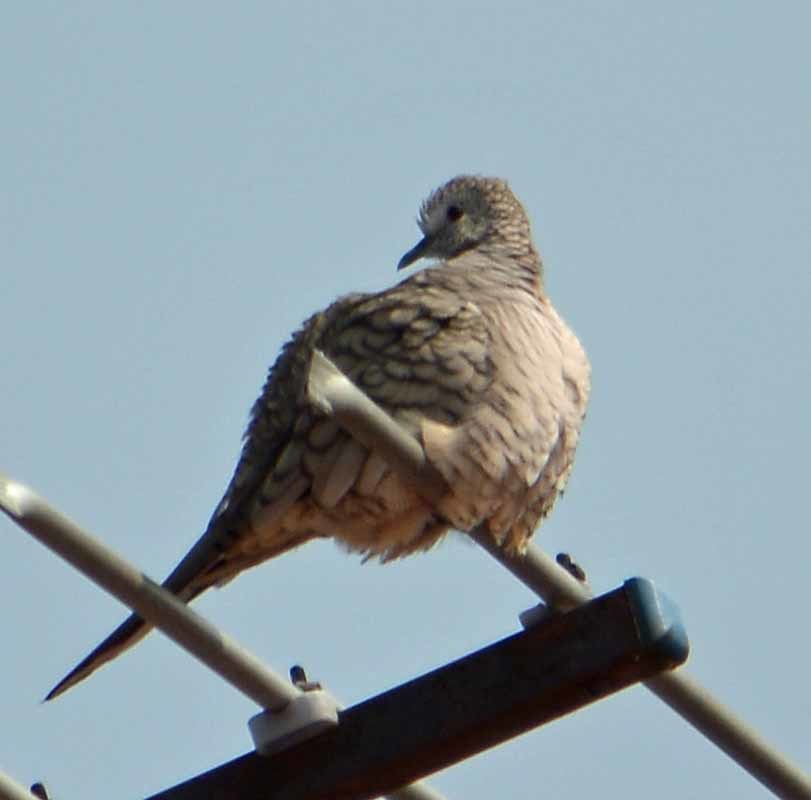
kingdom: Animalia
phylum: Chordata
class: Aves
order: Columbiformes
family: Columbidae
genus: Columbina
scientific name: Columbina inca
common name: Inca dove
